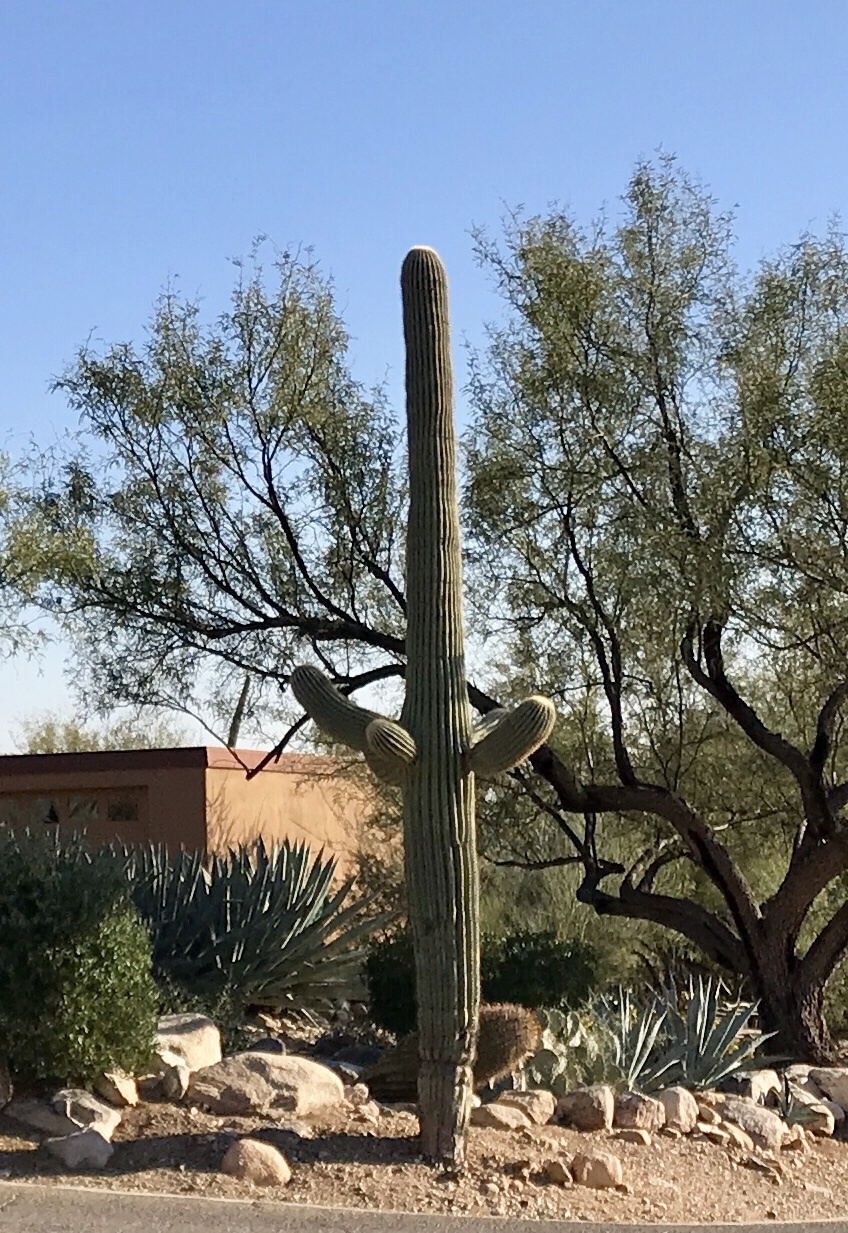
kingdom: Plantae
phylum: Tracheophyta
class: Magnoliopsida
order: Caryophyllales
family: Cactaceae
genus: Carnegiea
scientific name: Carnegiea gigantea
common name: Saguaro
